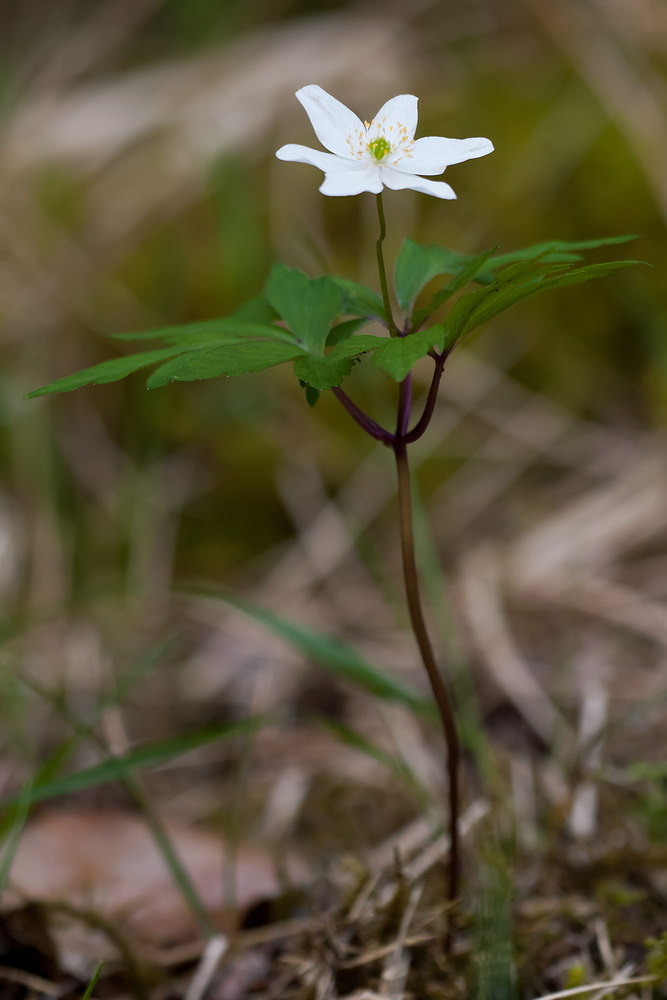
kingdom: Plantae
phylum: Tracheophyta
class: Magnoliopsida
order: Ranunculales
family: Ranunculaceae
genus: Anemone
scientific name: Anemone nemorosa
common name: Wood anemone
